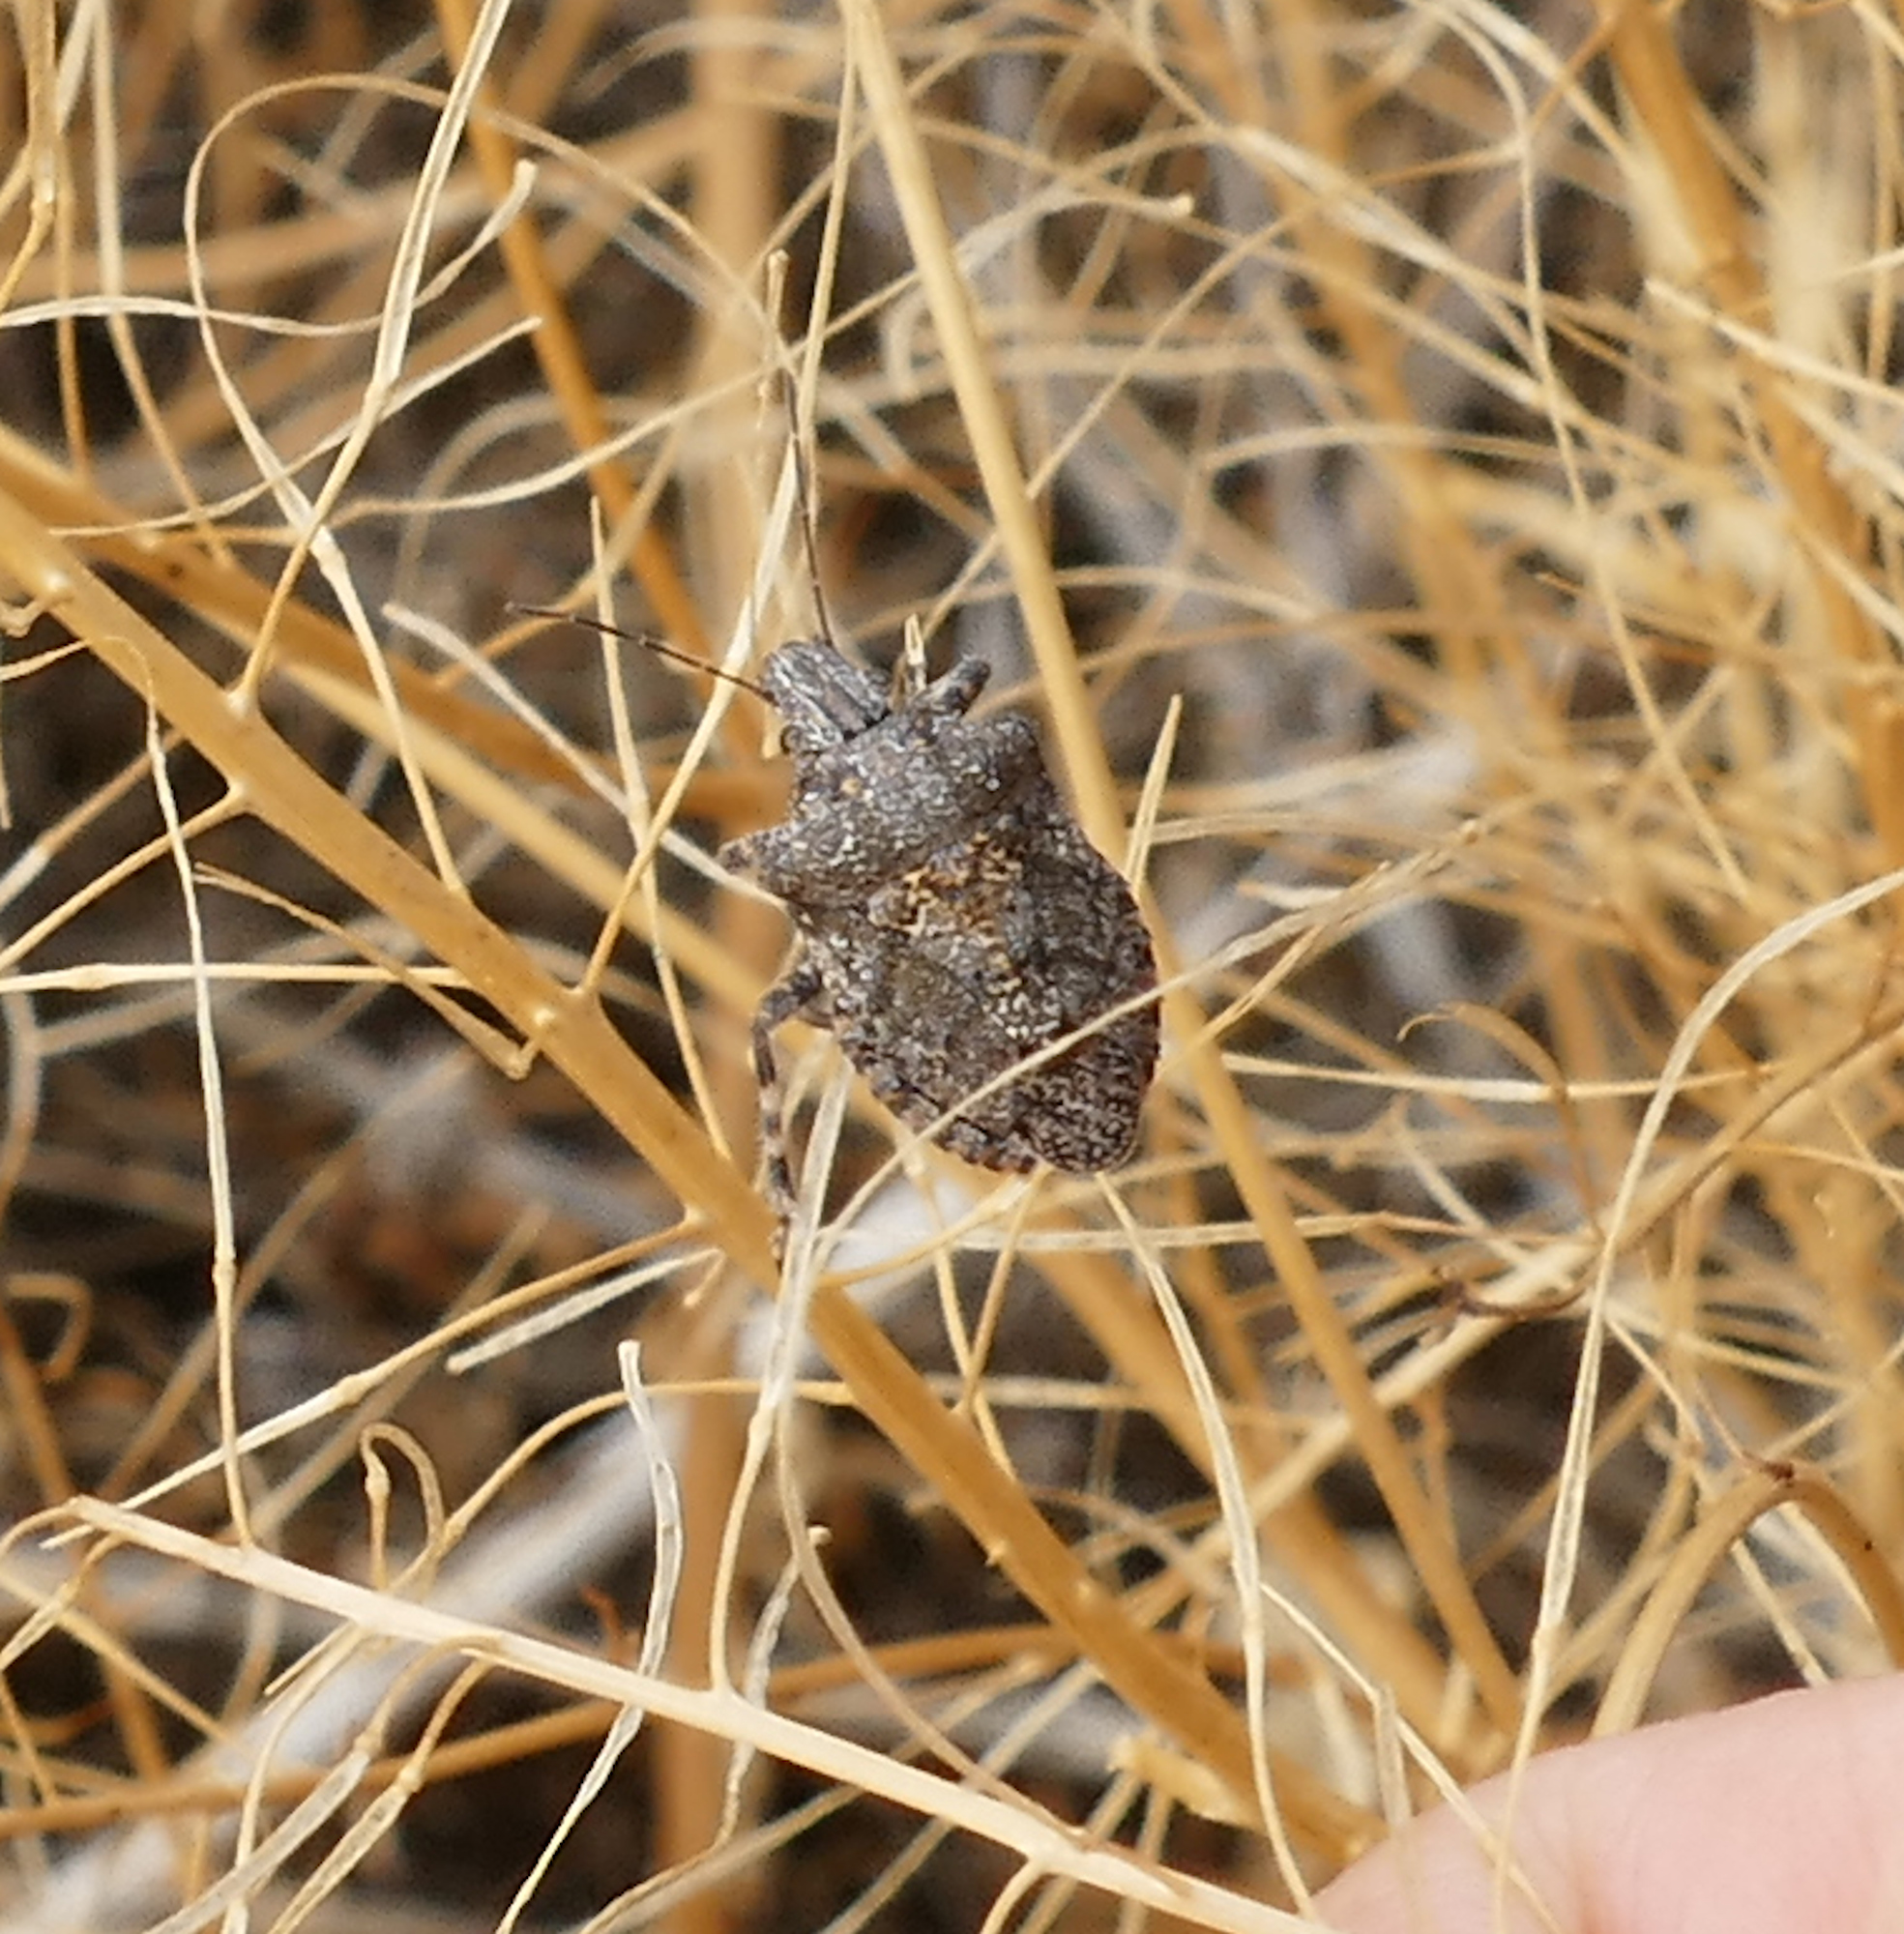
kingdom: Animalia
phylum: Arthropoda
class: Insecta
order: Hemiptera
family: Pentatomidae
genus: Brochymena
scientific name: Brochymena parva
